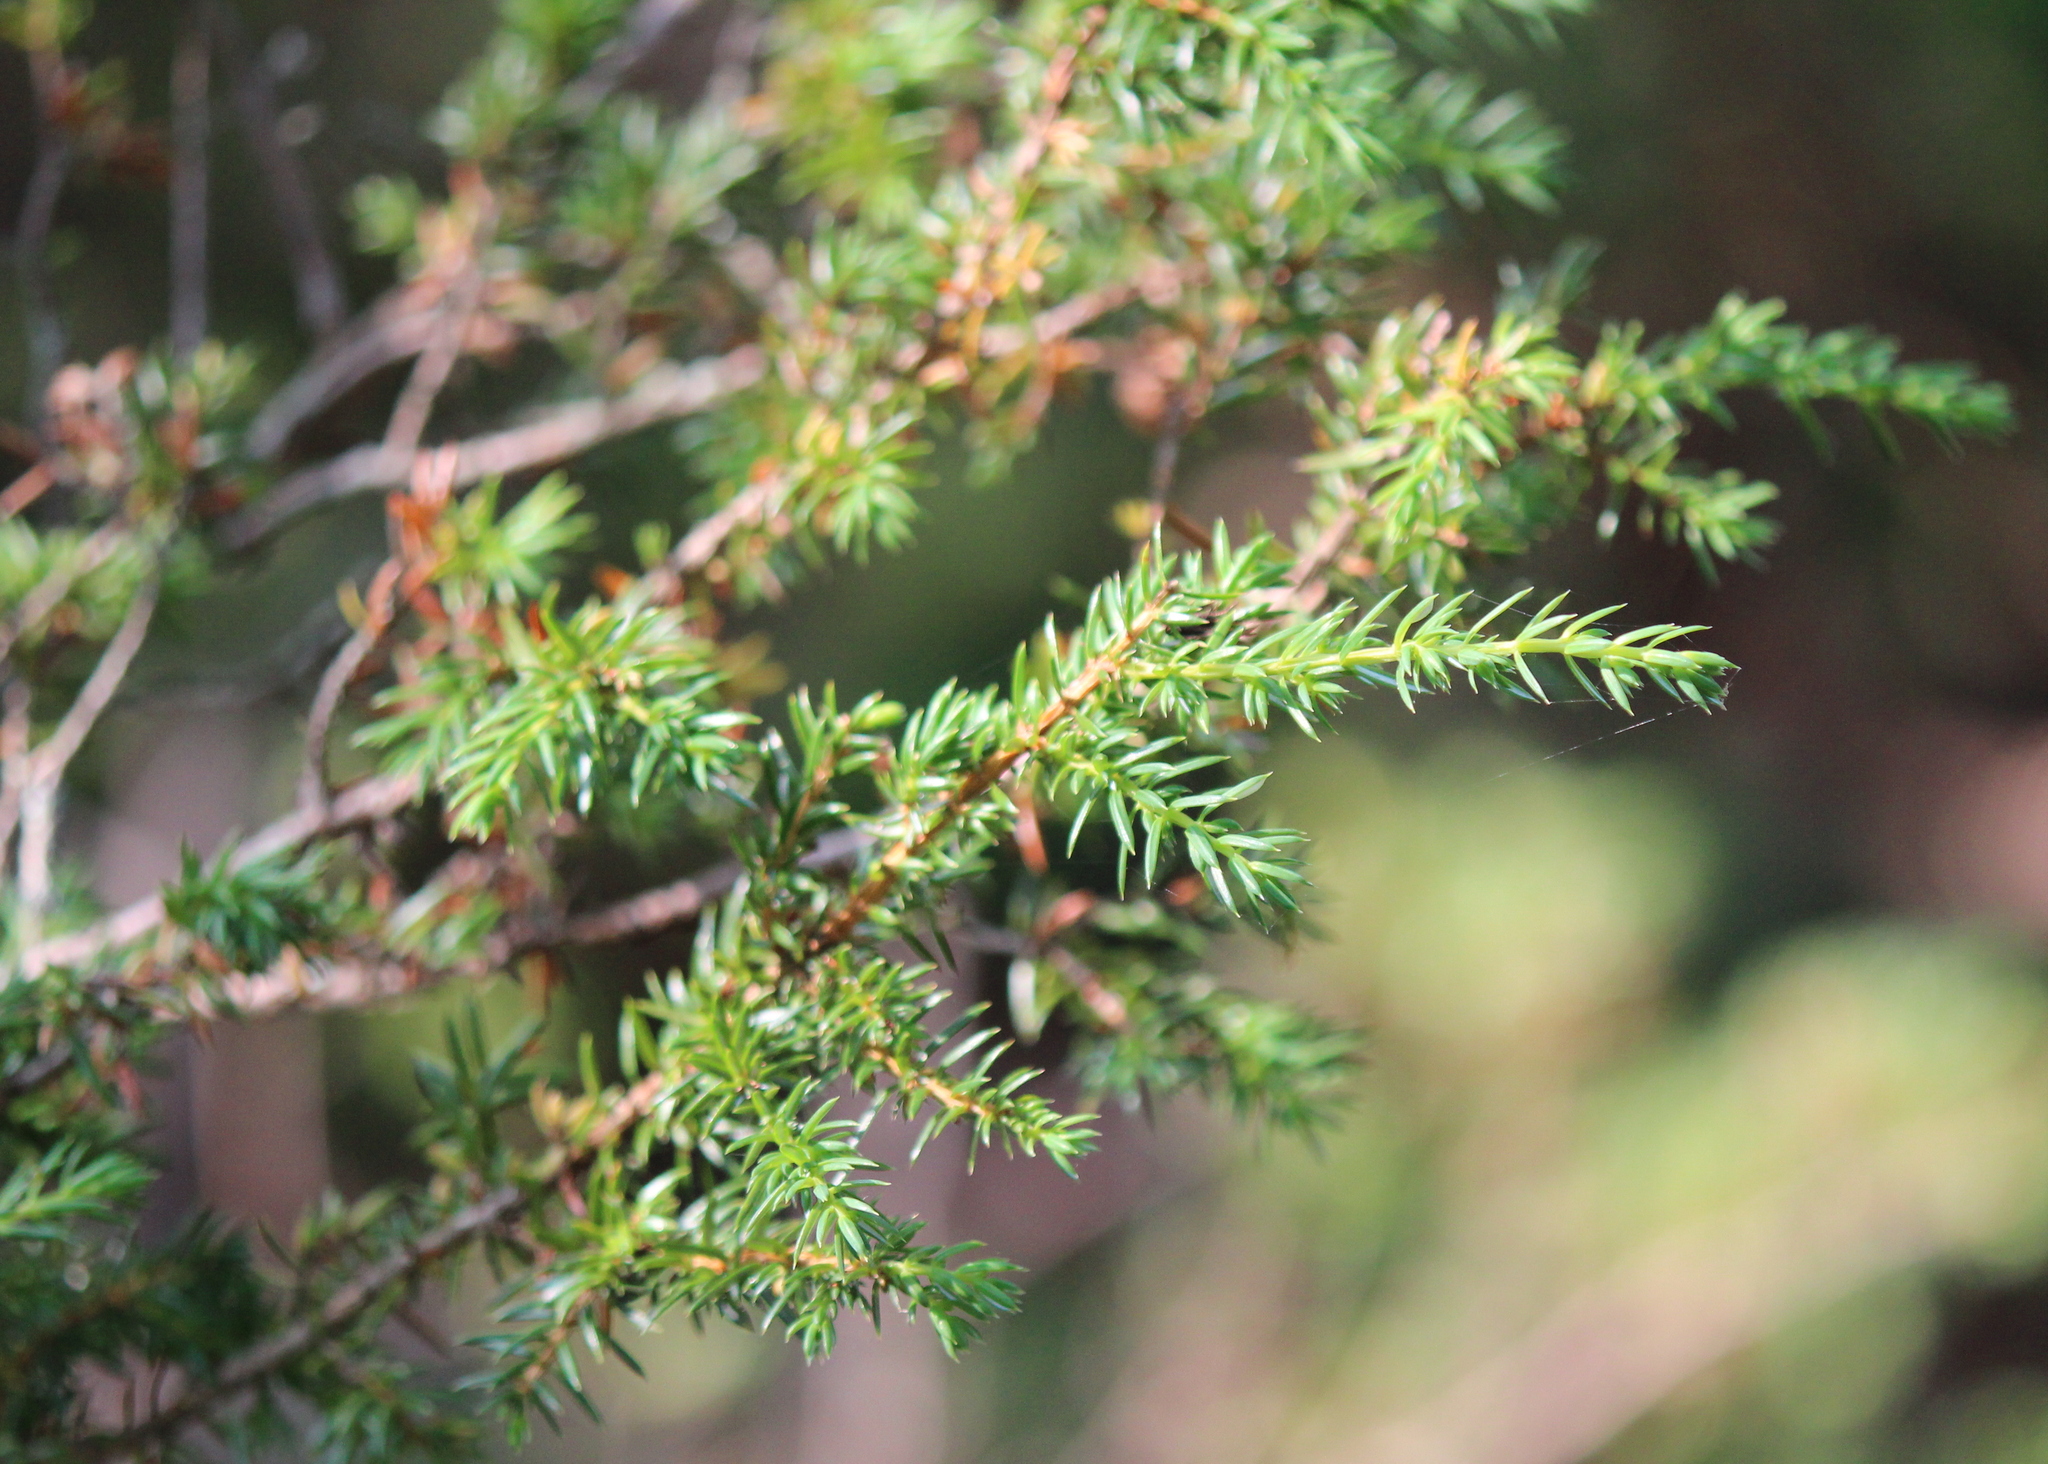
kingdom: Plantae
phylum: Tracheophyta
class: Pinopsida
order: Pinales
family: Cupressaceae
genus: Juniperus
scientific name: Juniperus communis
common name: Common juniper
